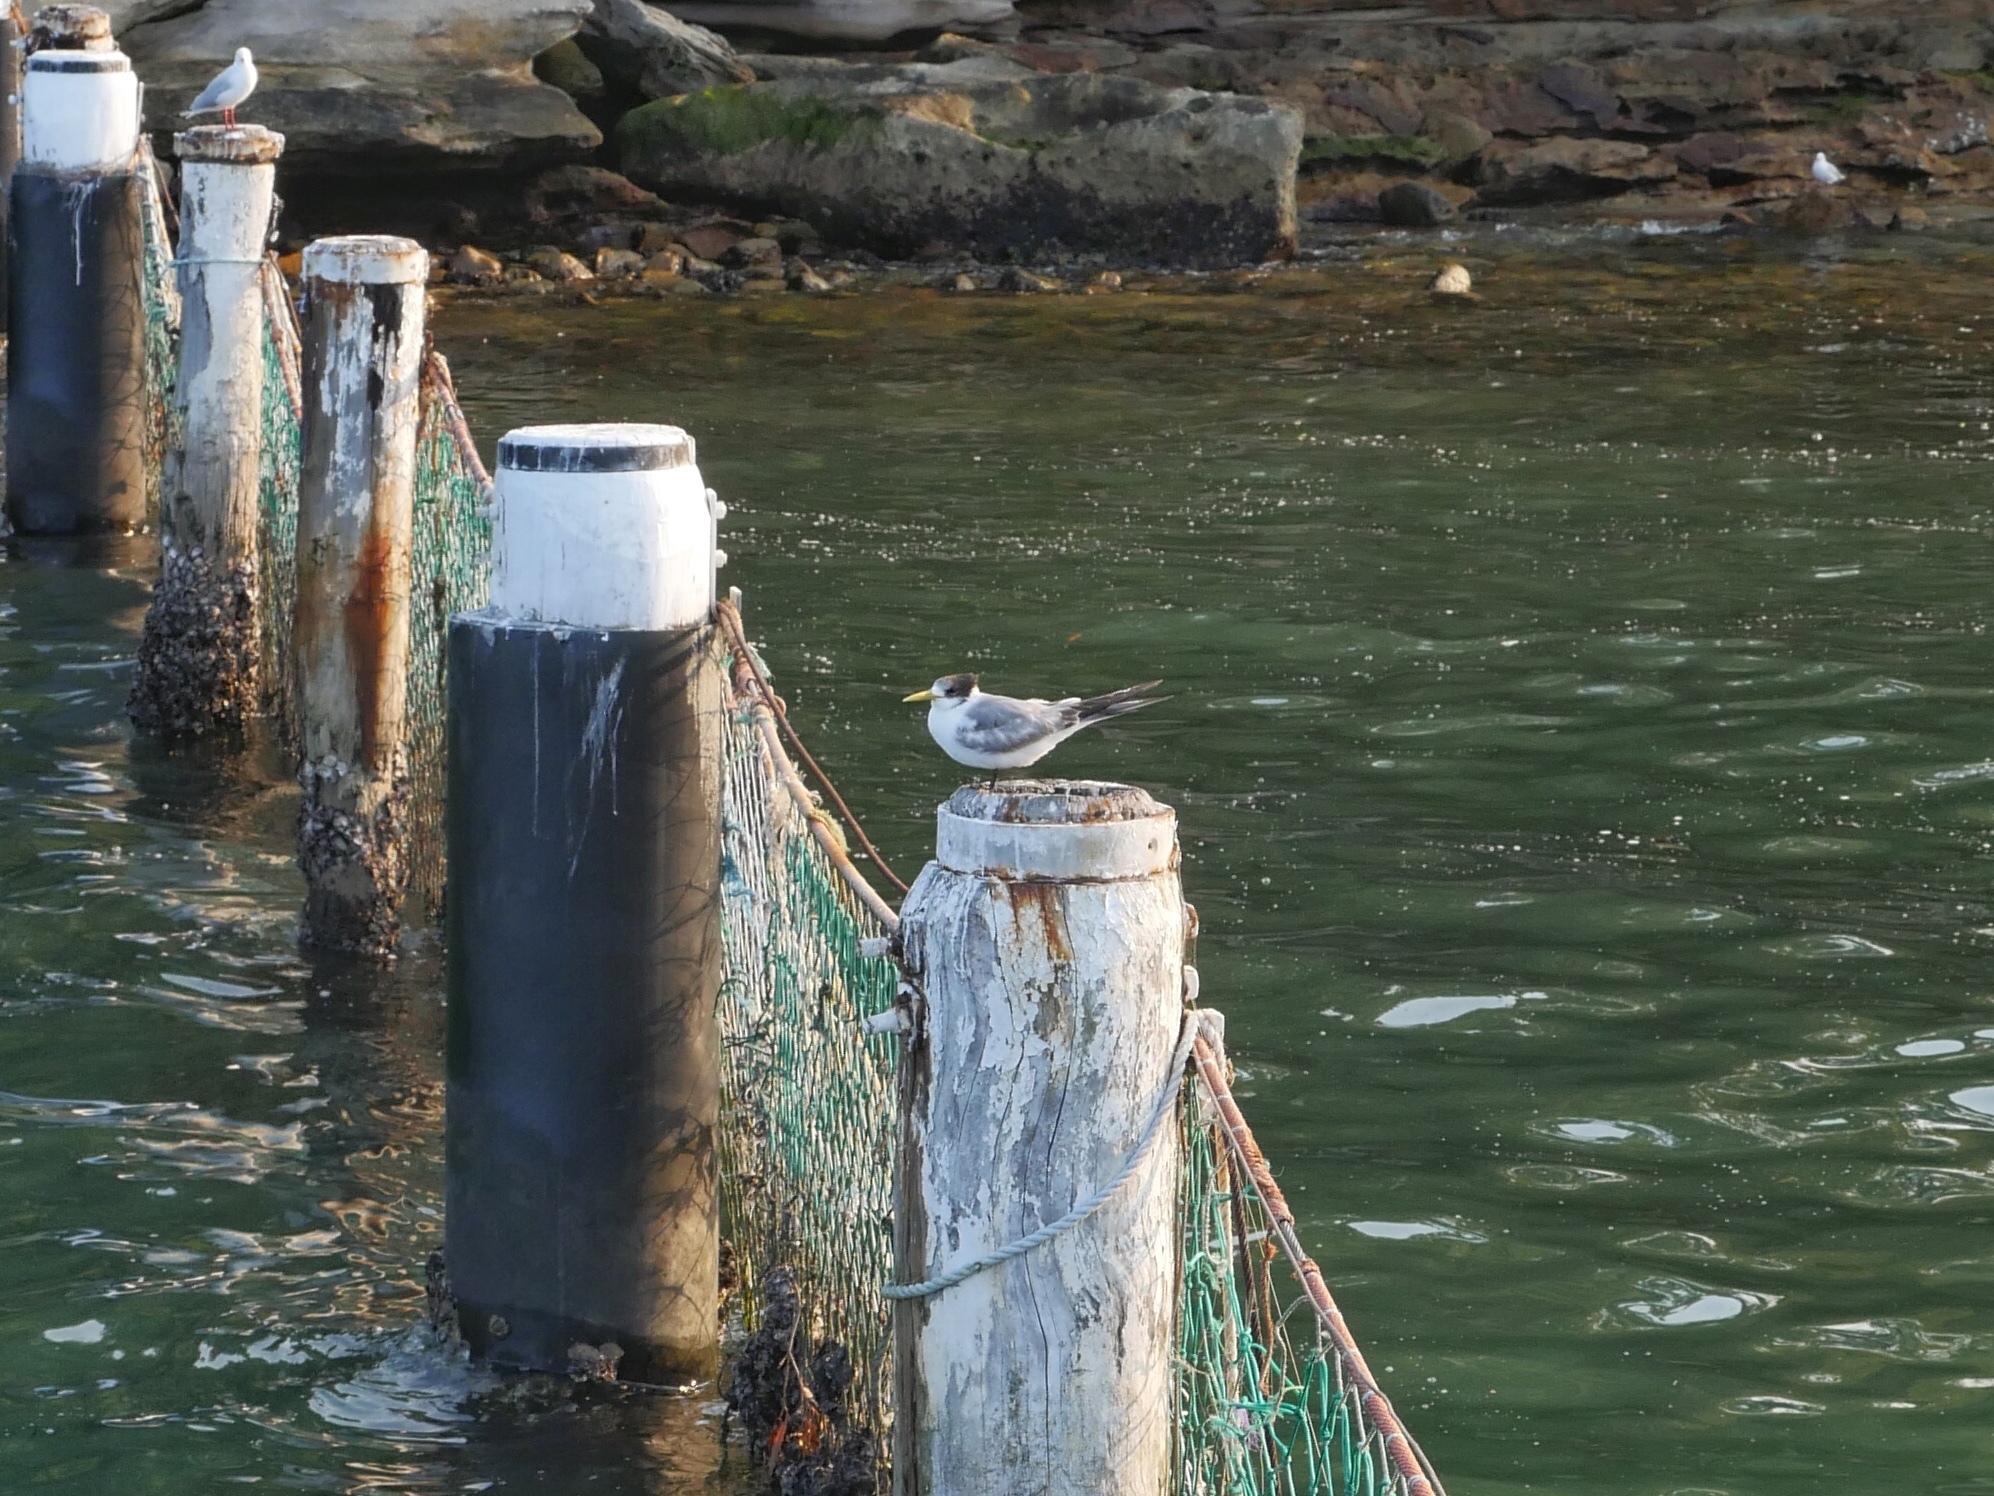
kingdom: Animalia
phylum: Chordata
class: Aves
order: Charadriiformes
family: Laridae
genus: Thalasseus
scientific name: Thalasseus bergii
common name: Greater crested tern
